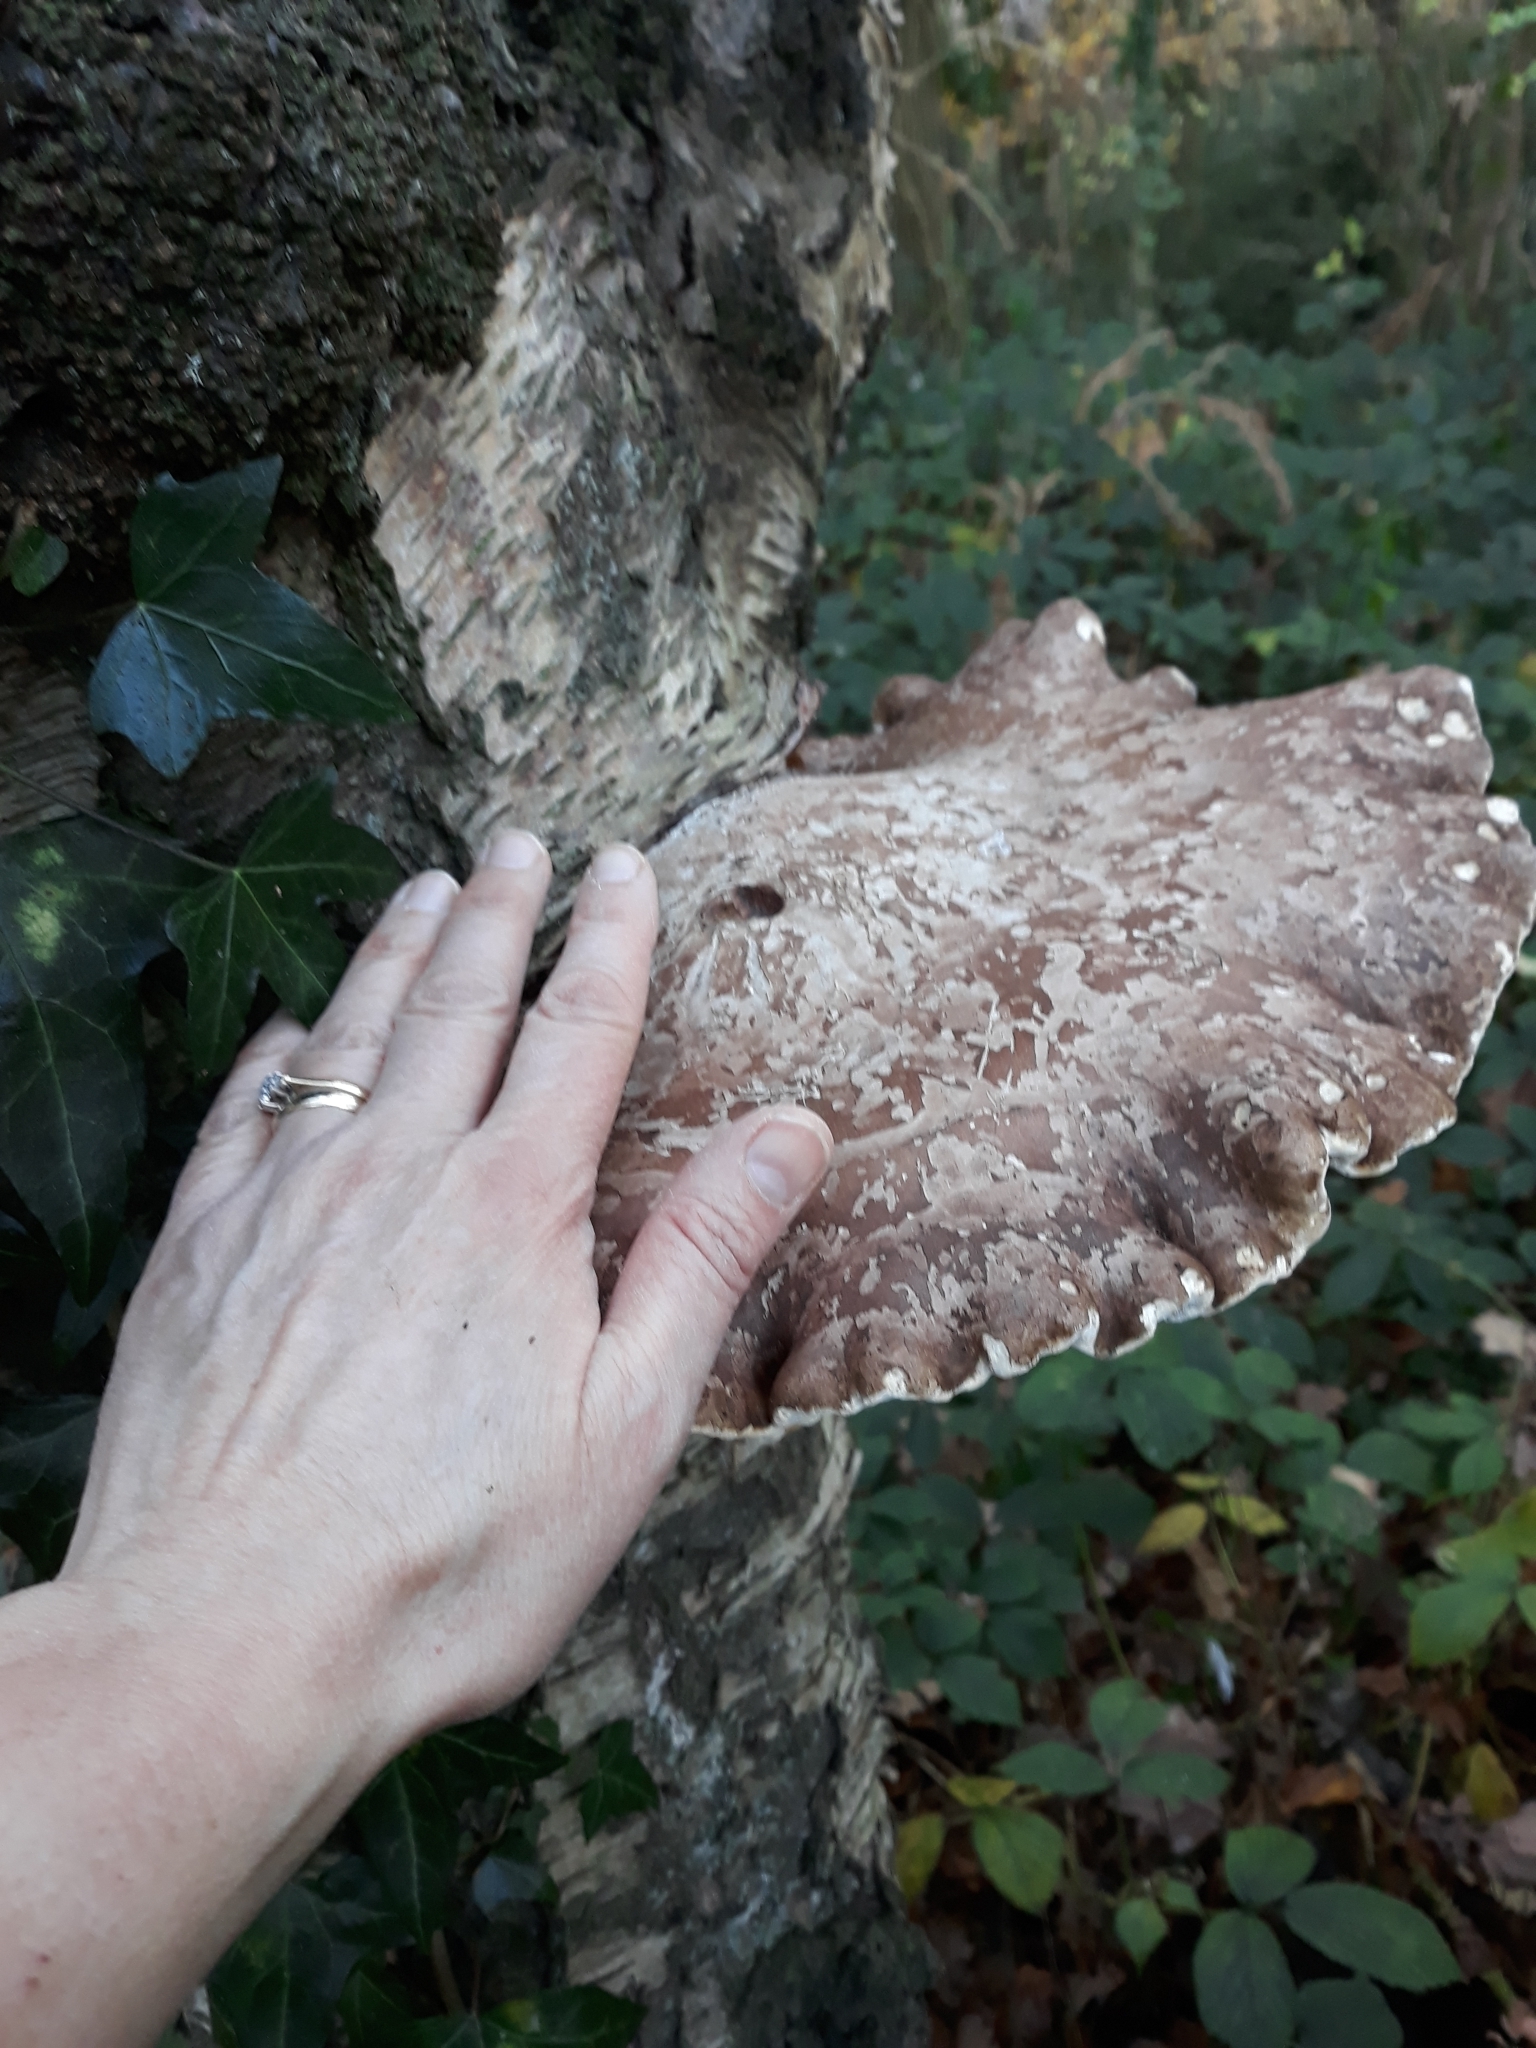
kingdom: Fungi
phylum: Basidiomycota
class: Agaricomycetes
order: Polyporales
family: Fomitopsidaceae
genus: Fomitopsis
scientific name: Fomitopsis betulina
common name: Birch polypore
